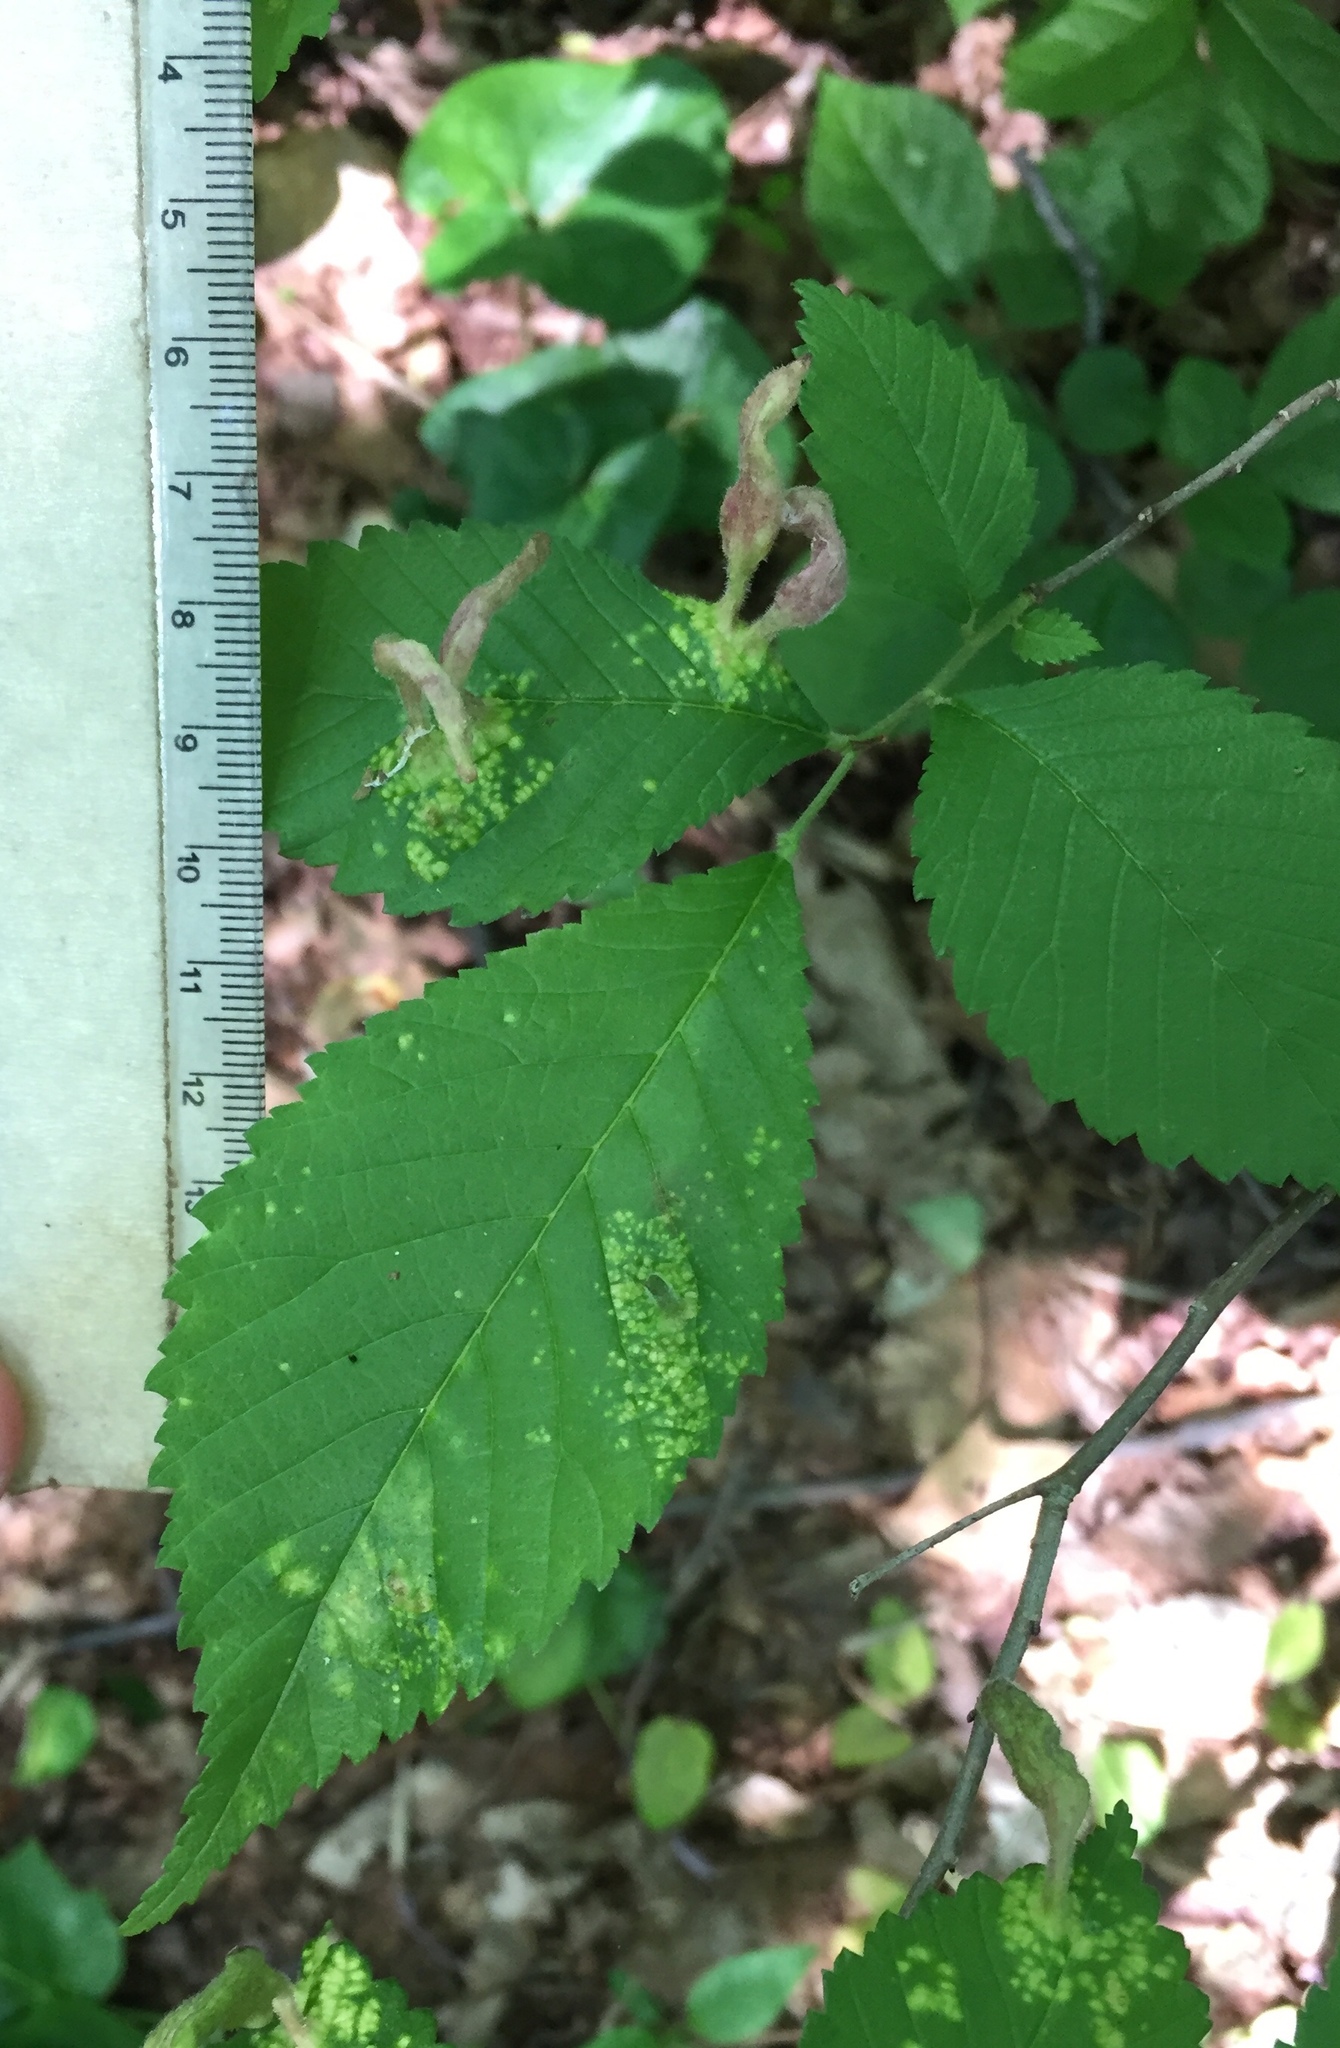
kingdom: Animalia
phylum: Arthropoda
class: Insecta
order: Hemiptera
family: Aphididae
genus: Tetraneura
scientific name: Tetraneura nigriabdominalis
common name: Aphid
